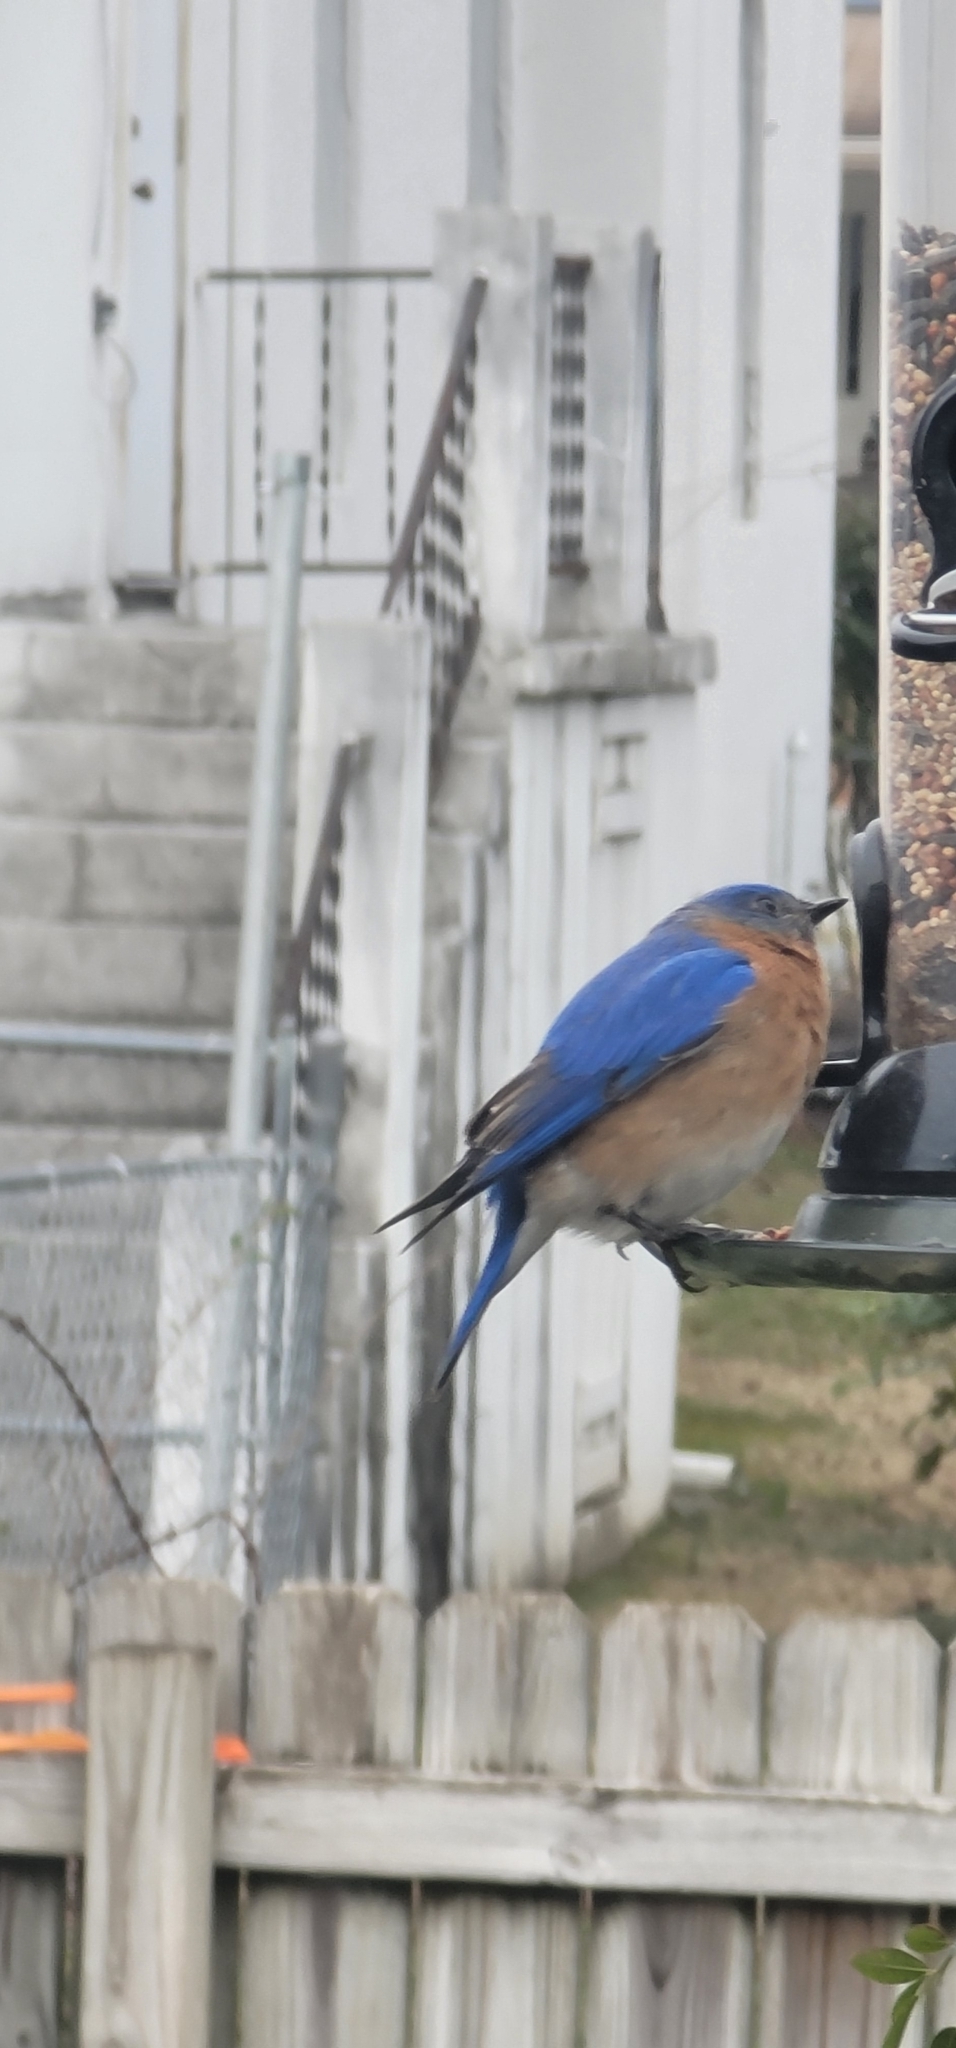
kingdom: Animalia
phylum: Chordata
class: Aves
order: Passeriformes
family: Turdidae
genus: Sialia
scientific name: Sialia sialis
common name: Eastern bluebird
